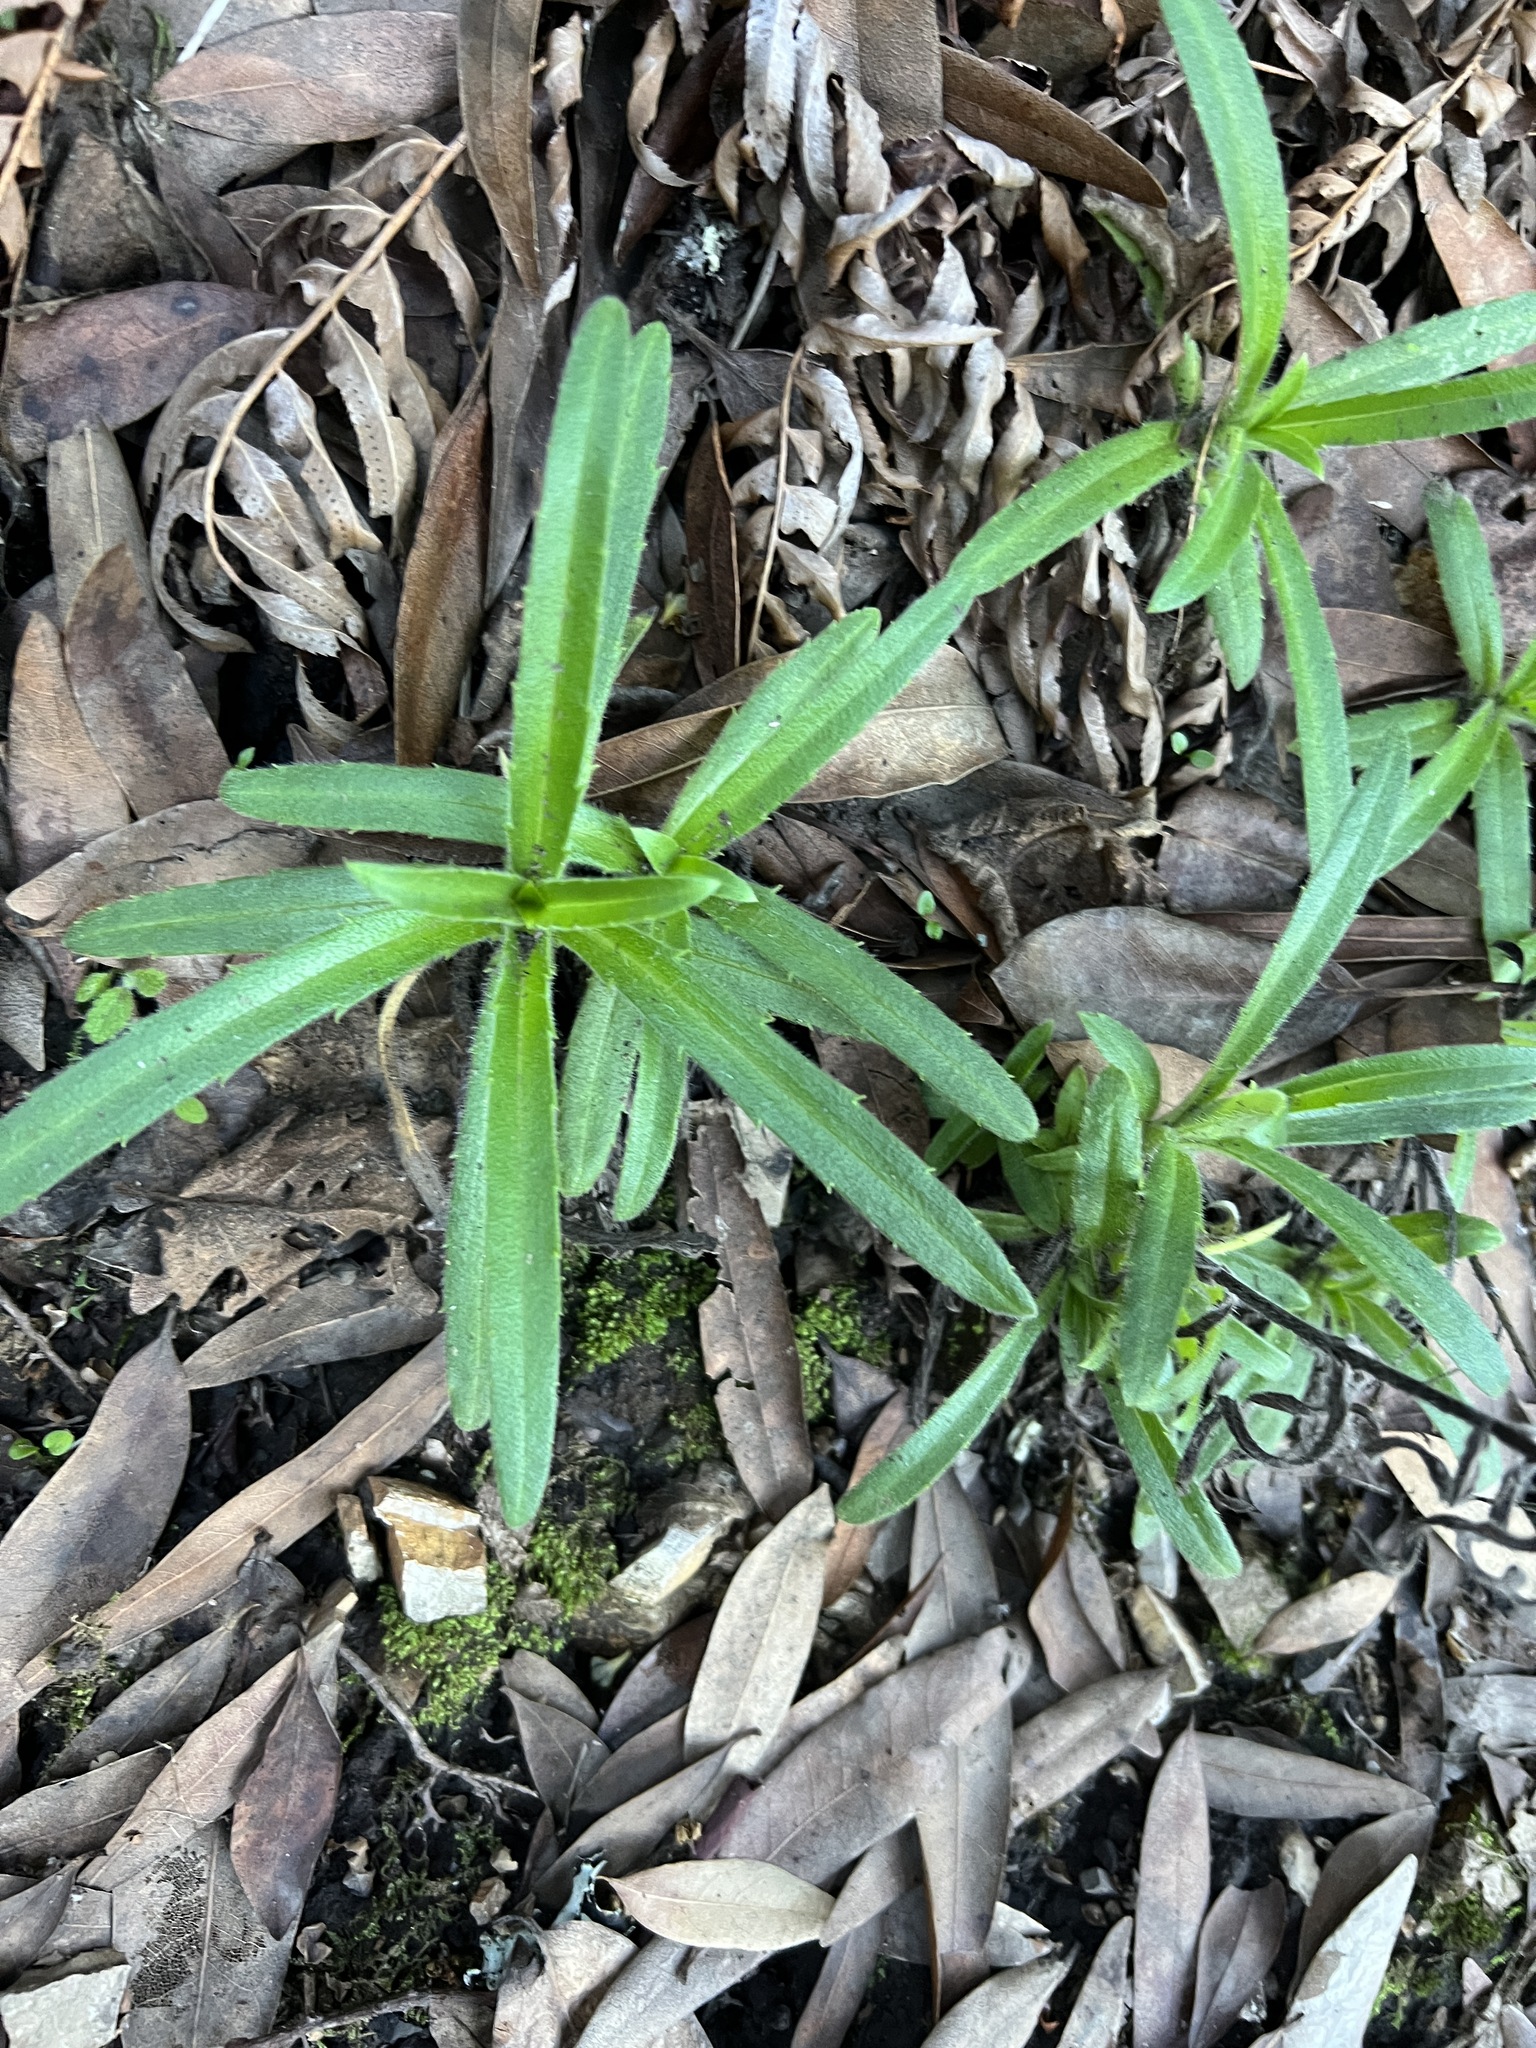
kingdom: Plantae
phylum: Tracheophyta
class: Magnoliopsida
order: Asterales
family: Asteraceae
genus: Anisocarpus
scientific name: Anisocarpus madioides
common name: Woodland madia
